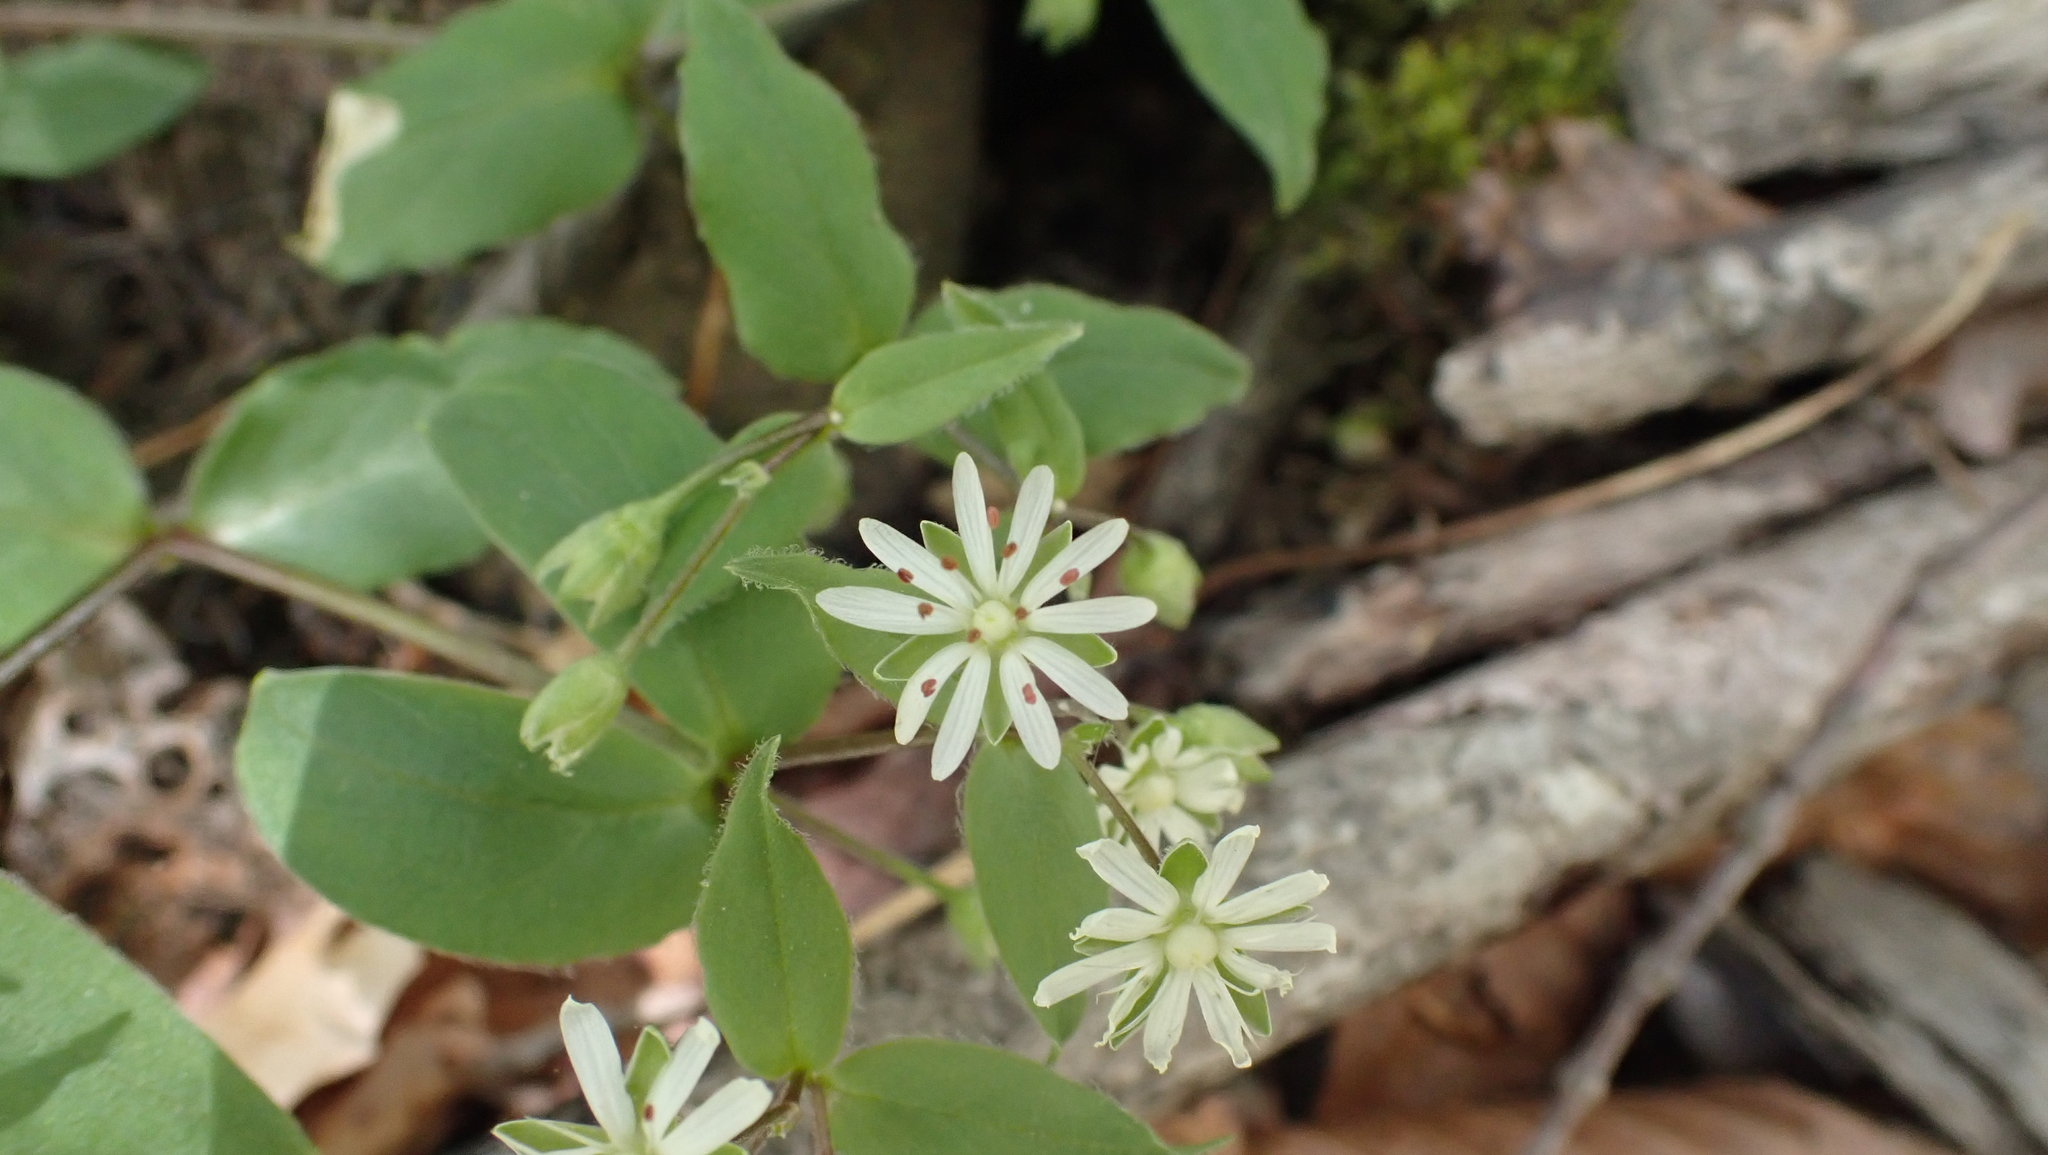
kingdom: Plantae
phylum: Tracheophyta
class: Magnoliopsida
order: Caryophyllales
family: Caryophyllaceae
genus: Stellaria
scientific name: Stellaria pubera
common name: Star chickweed
